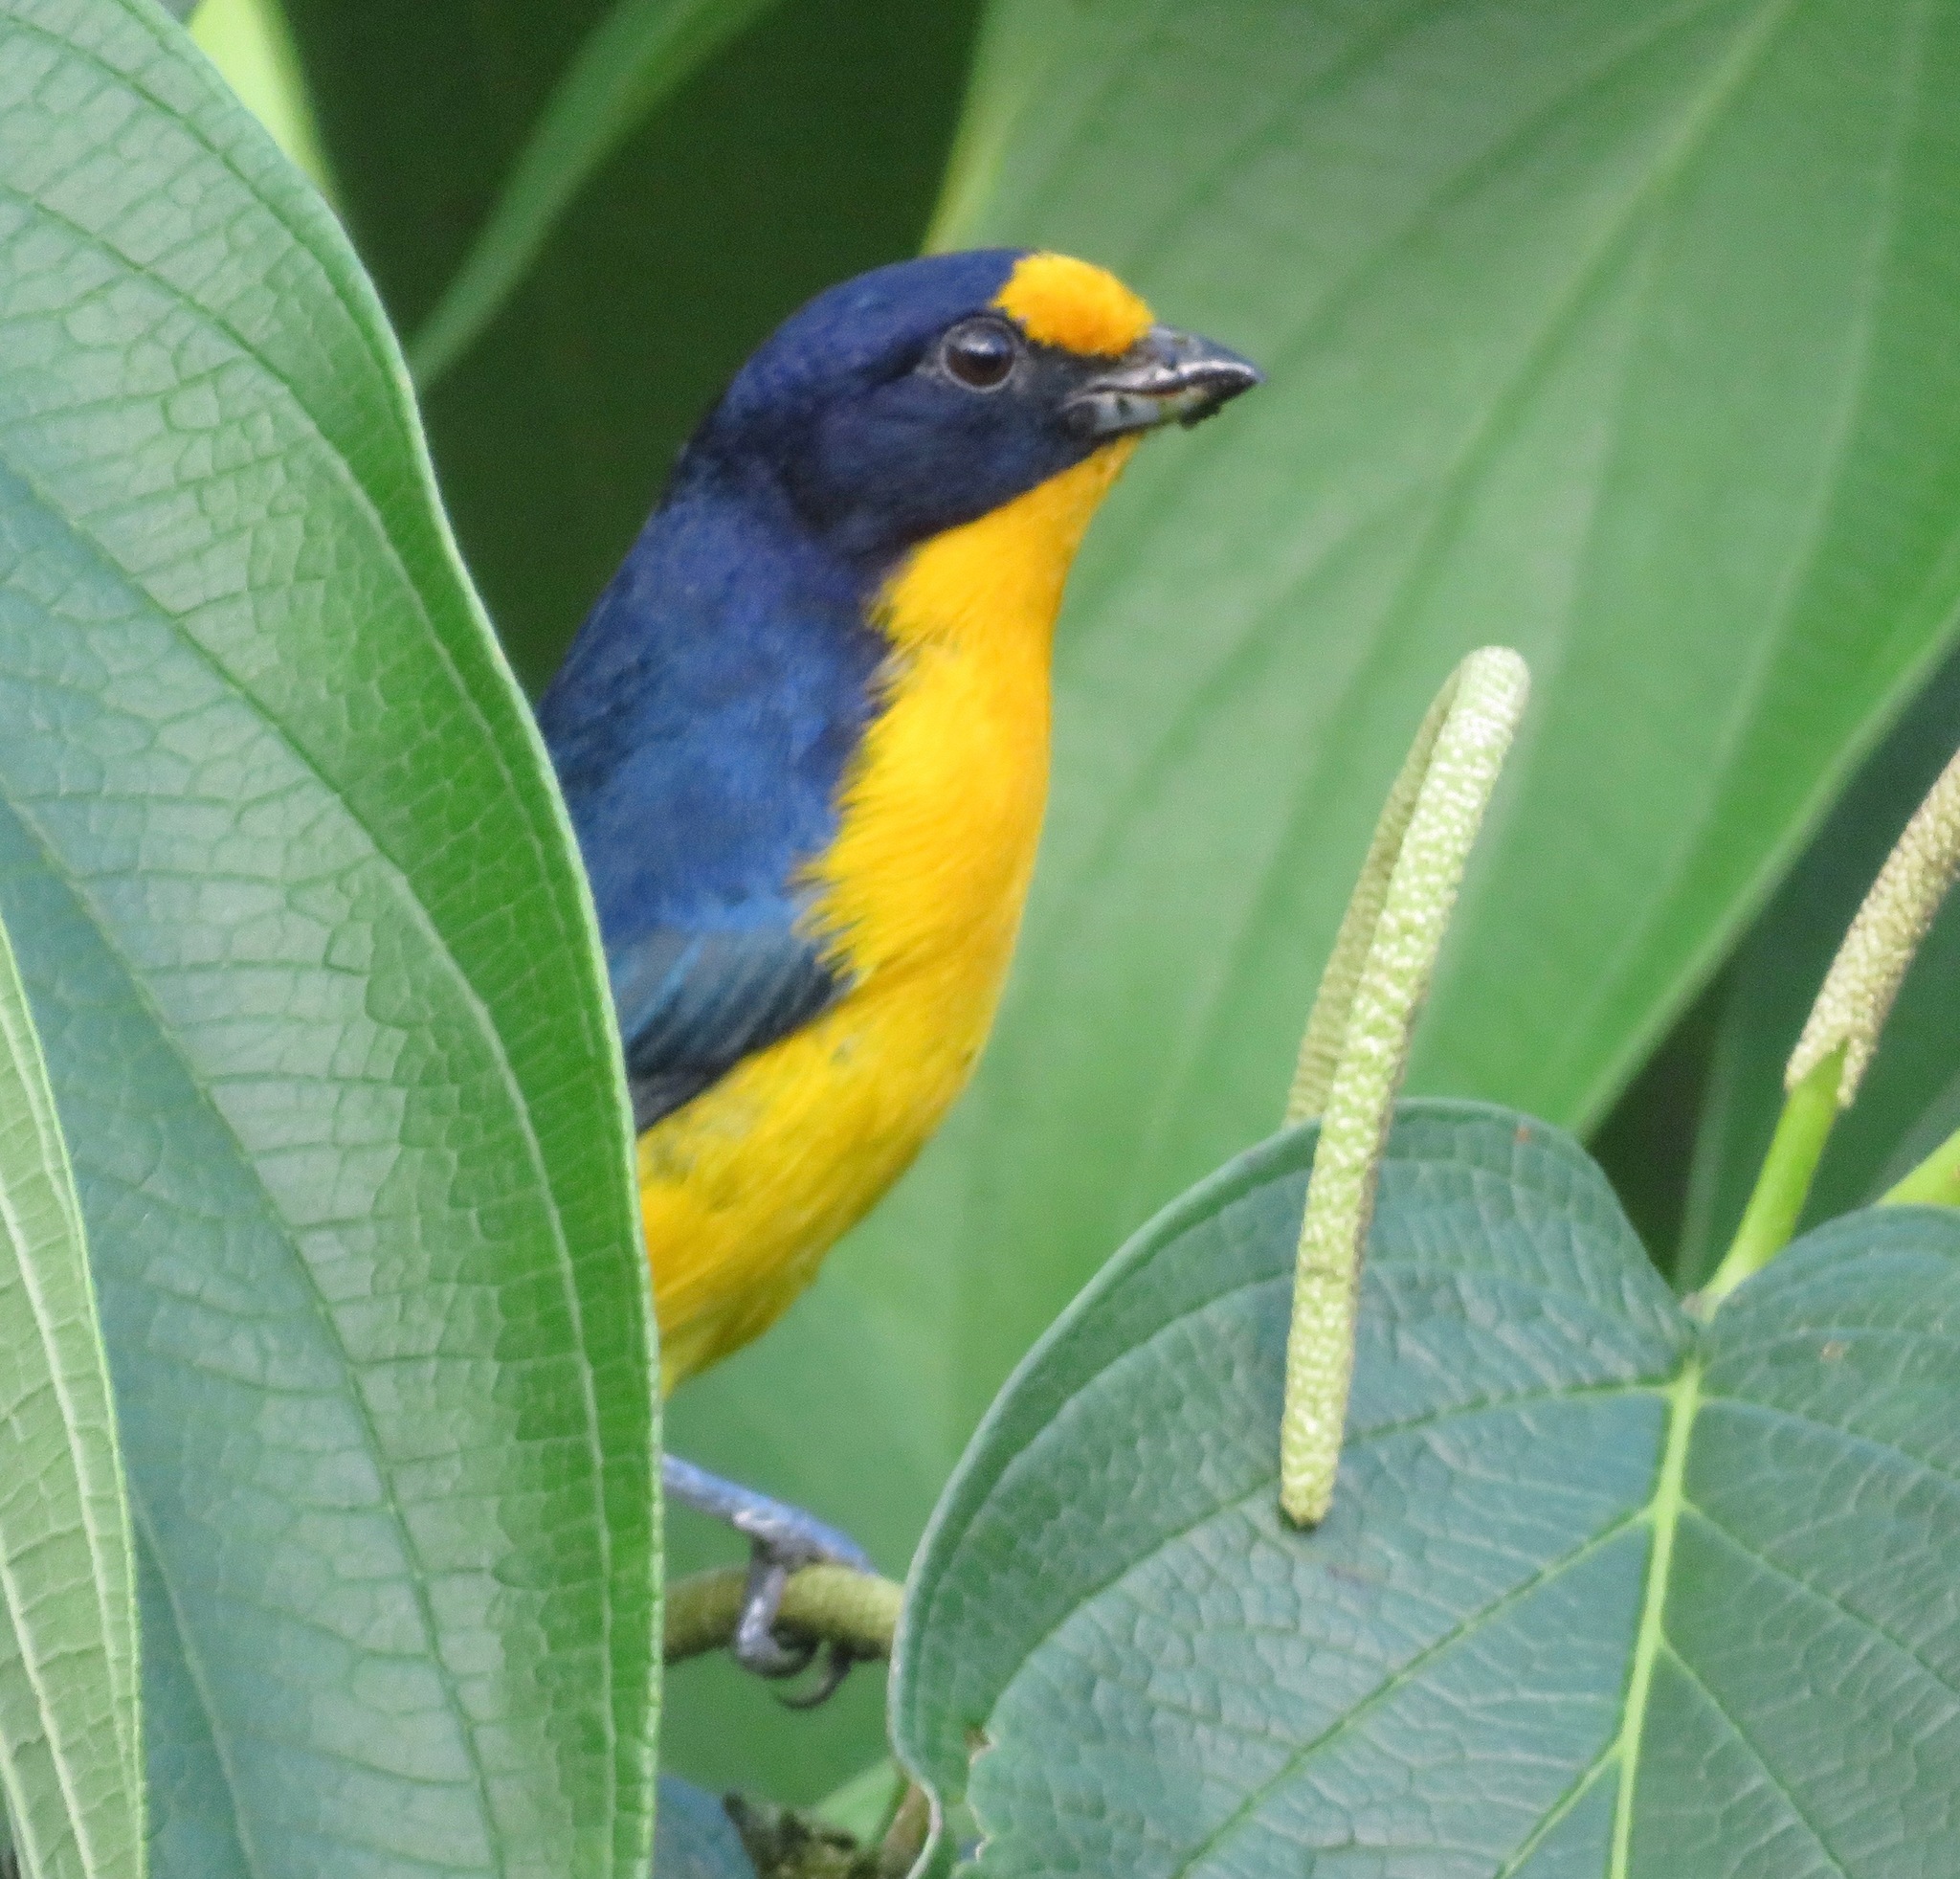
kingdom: Animalia
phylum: Chordata
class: Aves
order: Passeriformes
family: Fringillidae
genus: Euphonia
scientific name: Euphonia violacea
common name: Violaceous euphonia
